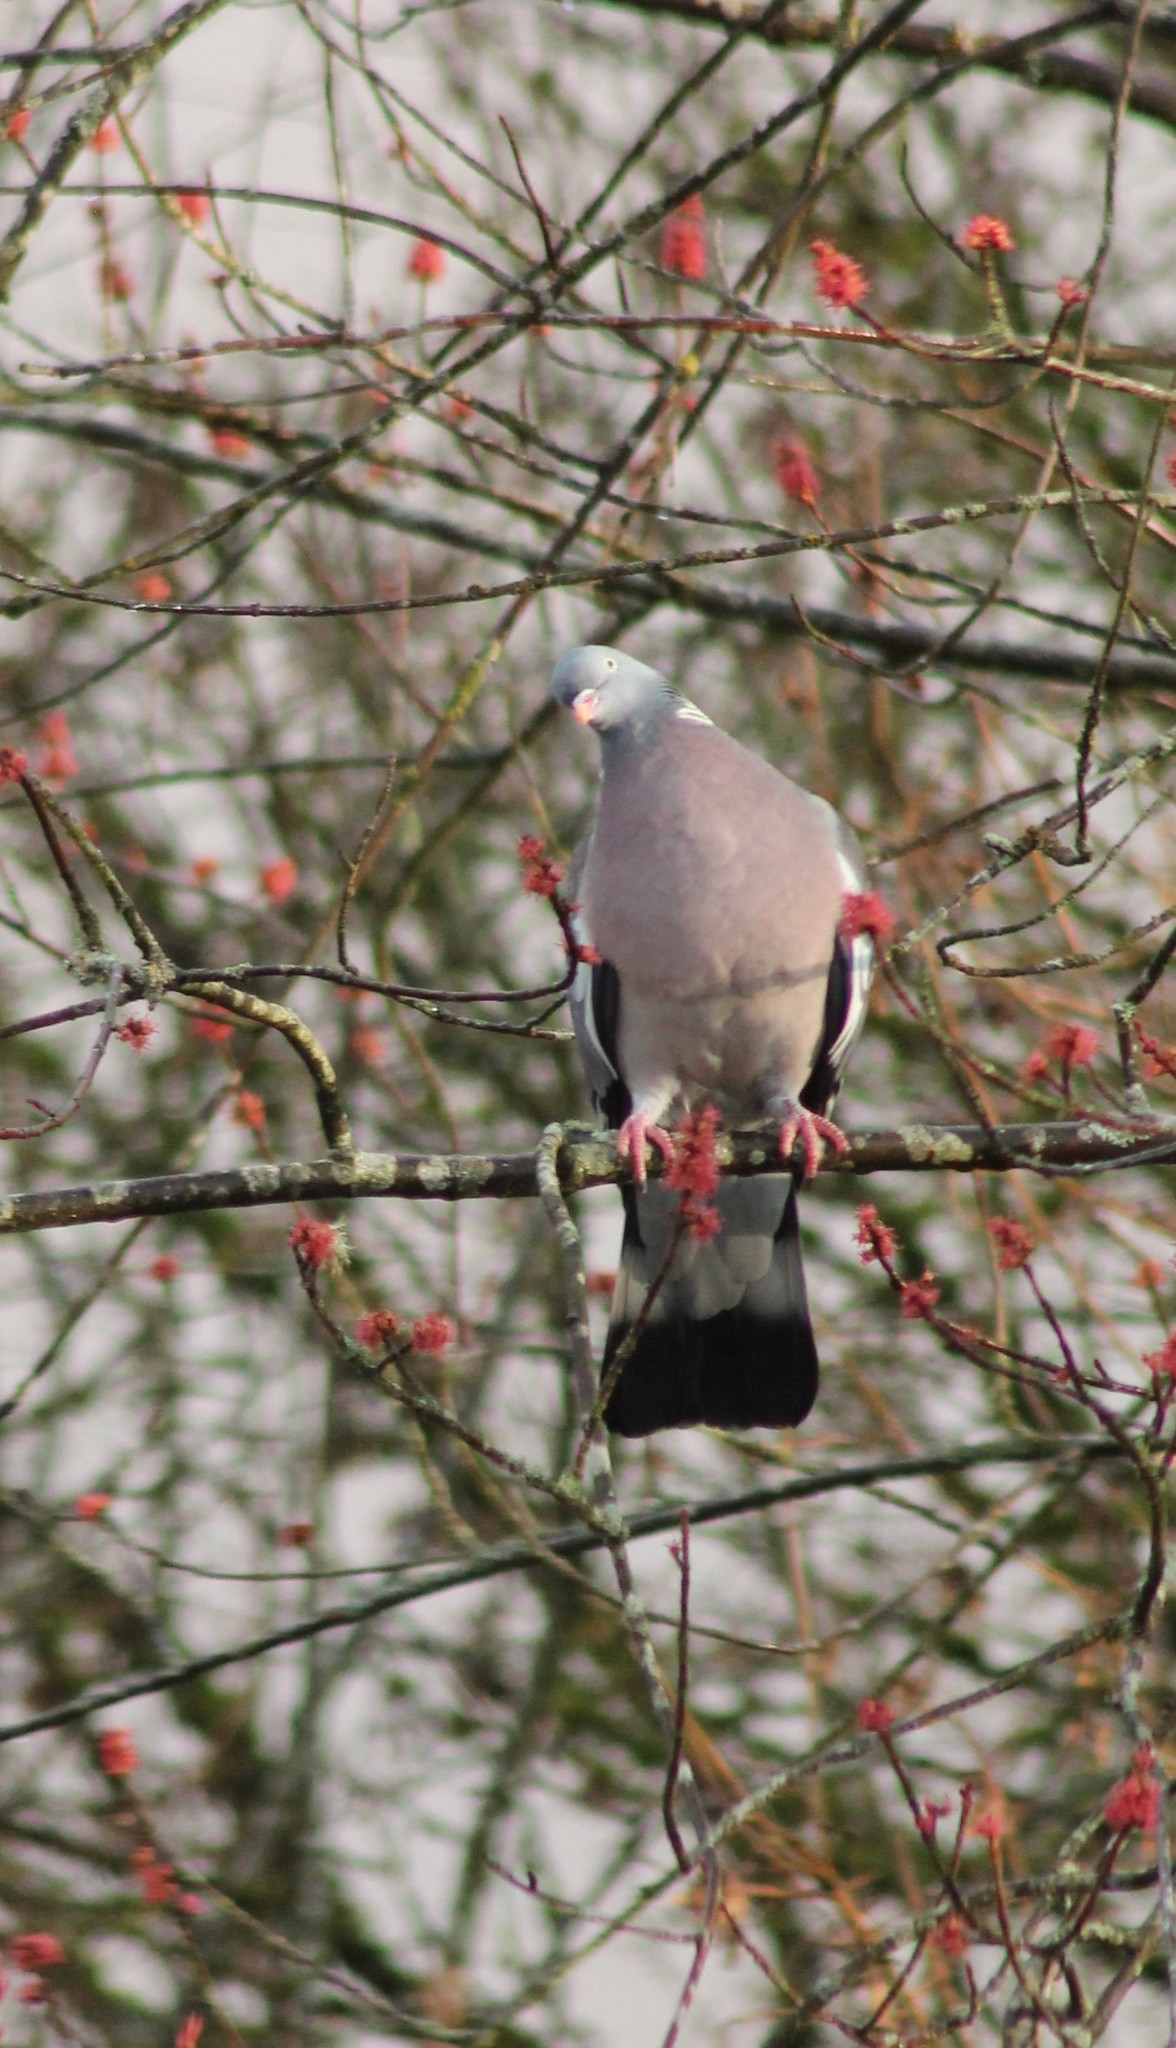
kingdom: Animalia
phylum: Chordata
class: Aves
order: Columbiformes
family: Columbidae
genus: Columba
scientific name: Columba palumbus
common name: Common wood pigeon
